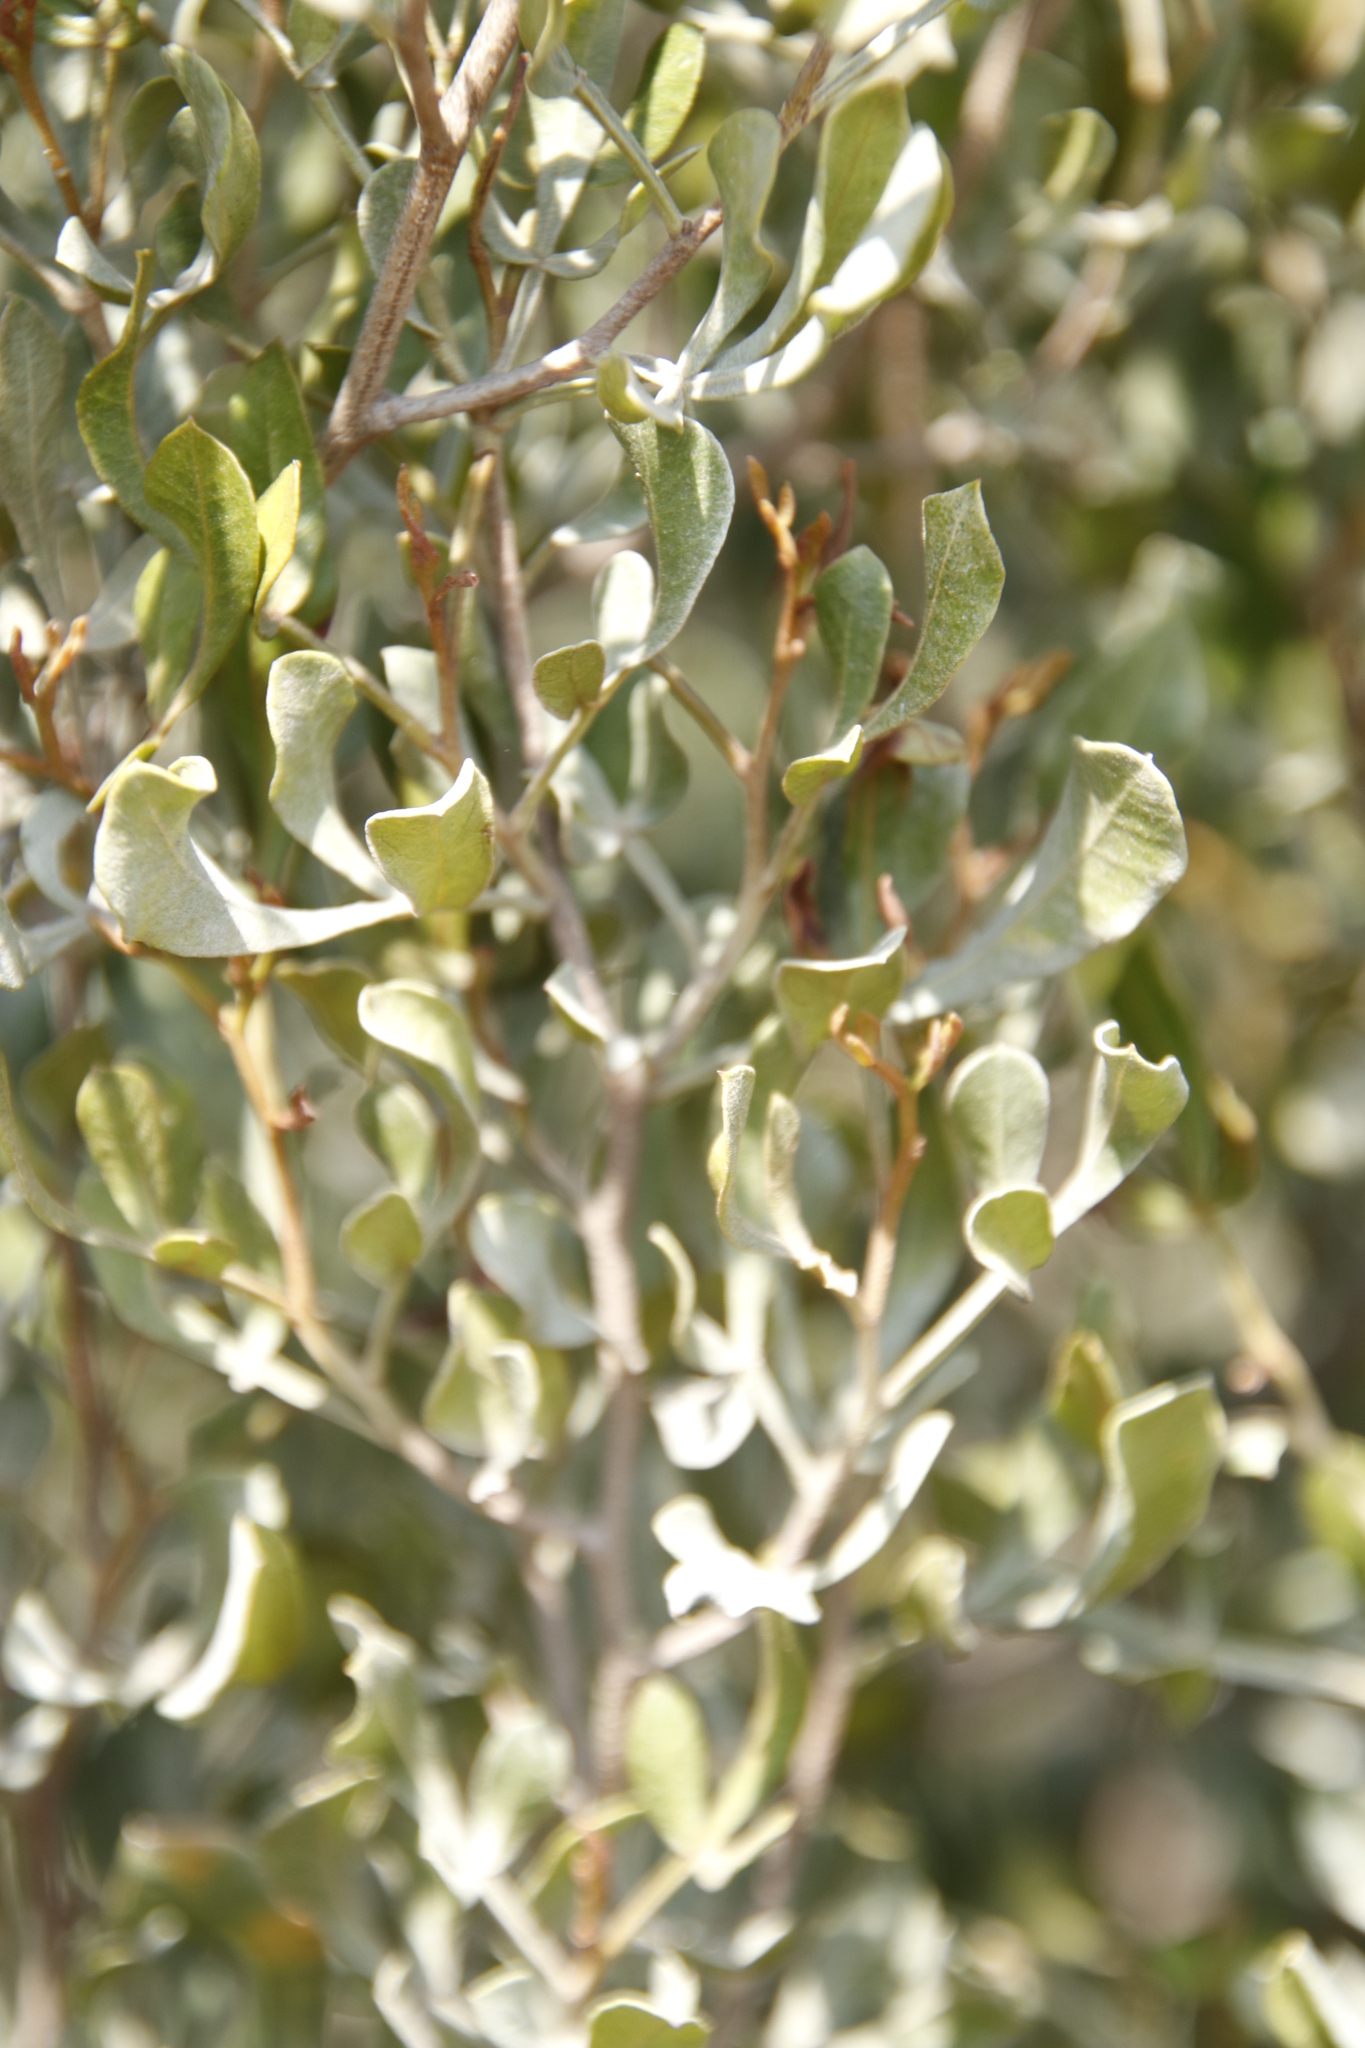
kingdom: Plantae
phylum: Tracheophyta
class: Magnoliopsida
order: Sapindales
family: Anacardiaceae
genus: Searsia
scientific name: Searsia pallens
